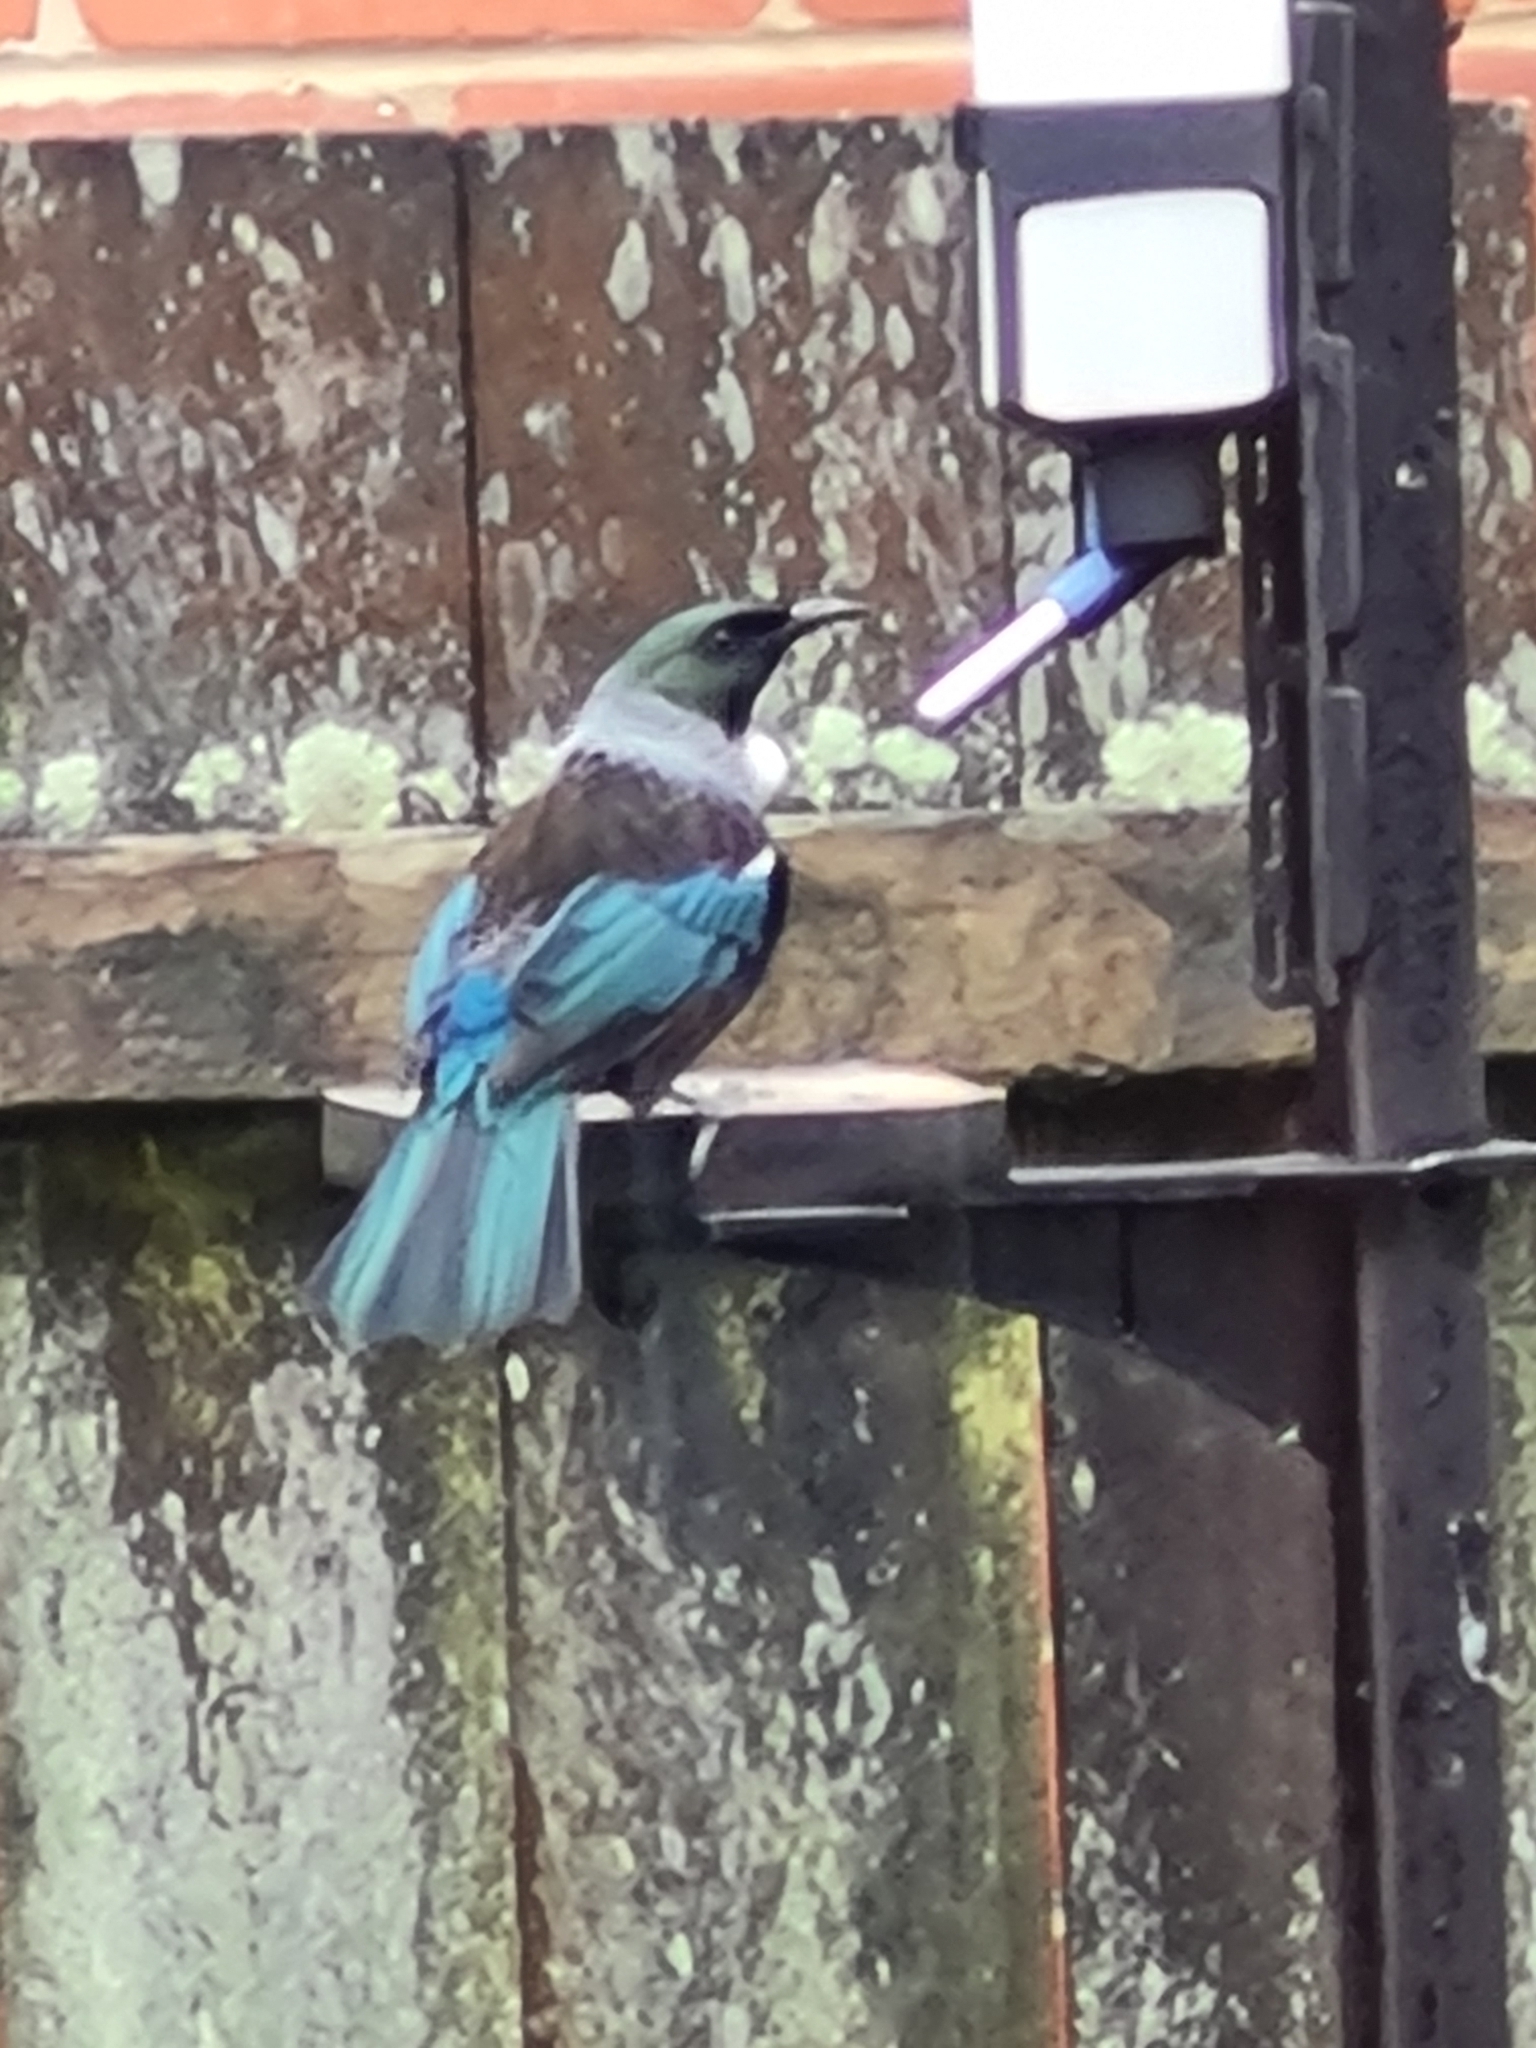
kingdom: Animalia
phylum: Chordata
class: Aves
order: Passeriformes
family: Meliphagidae
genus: Prosthemadera
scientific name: Prosthemadera novaeseelandiae
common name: Tui
